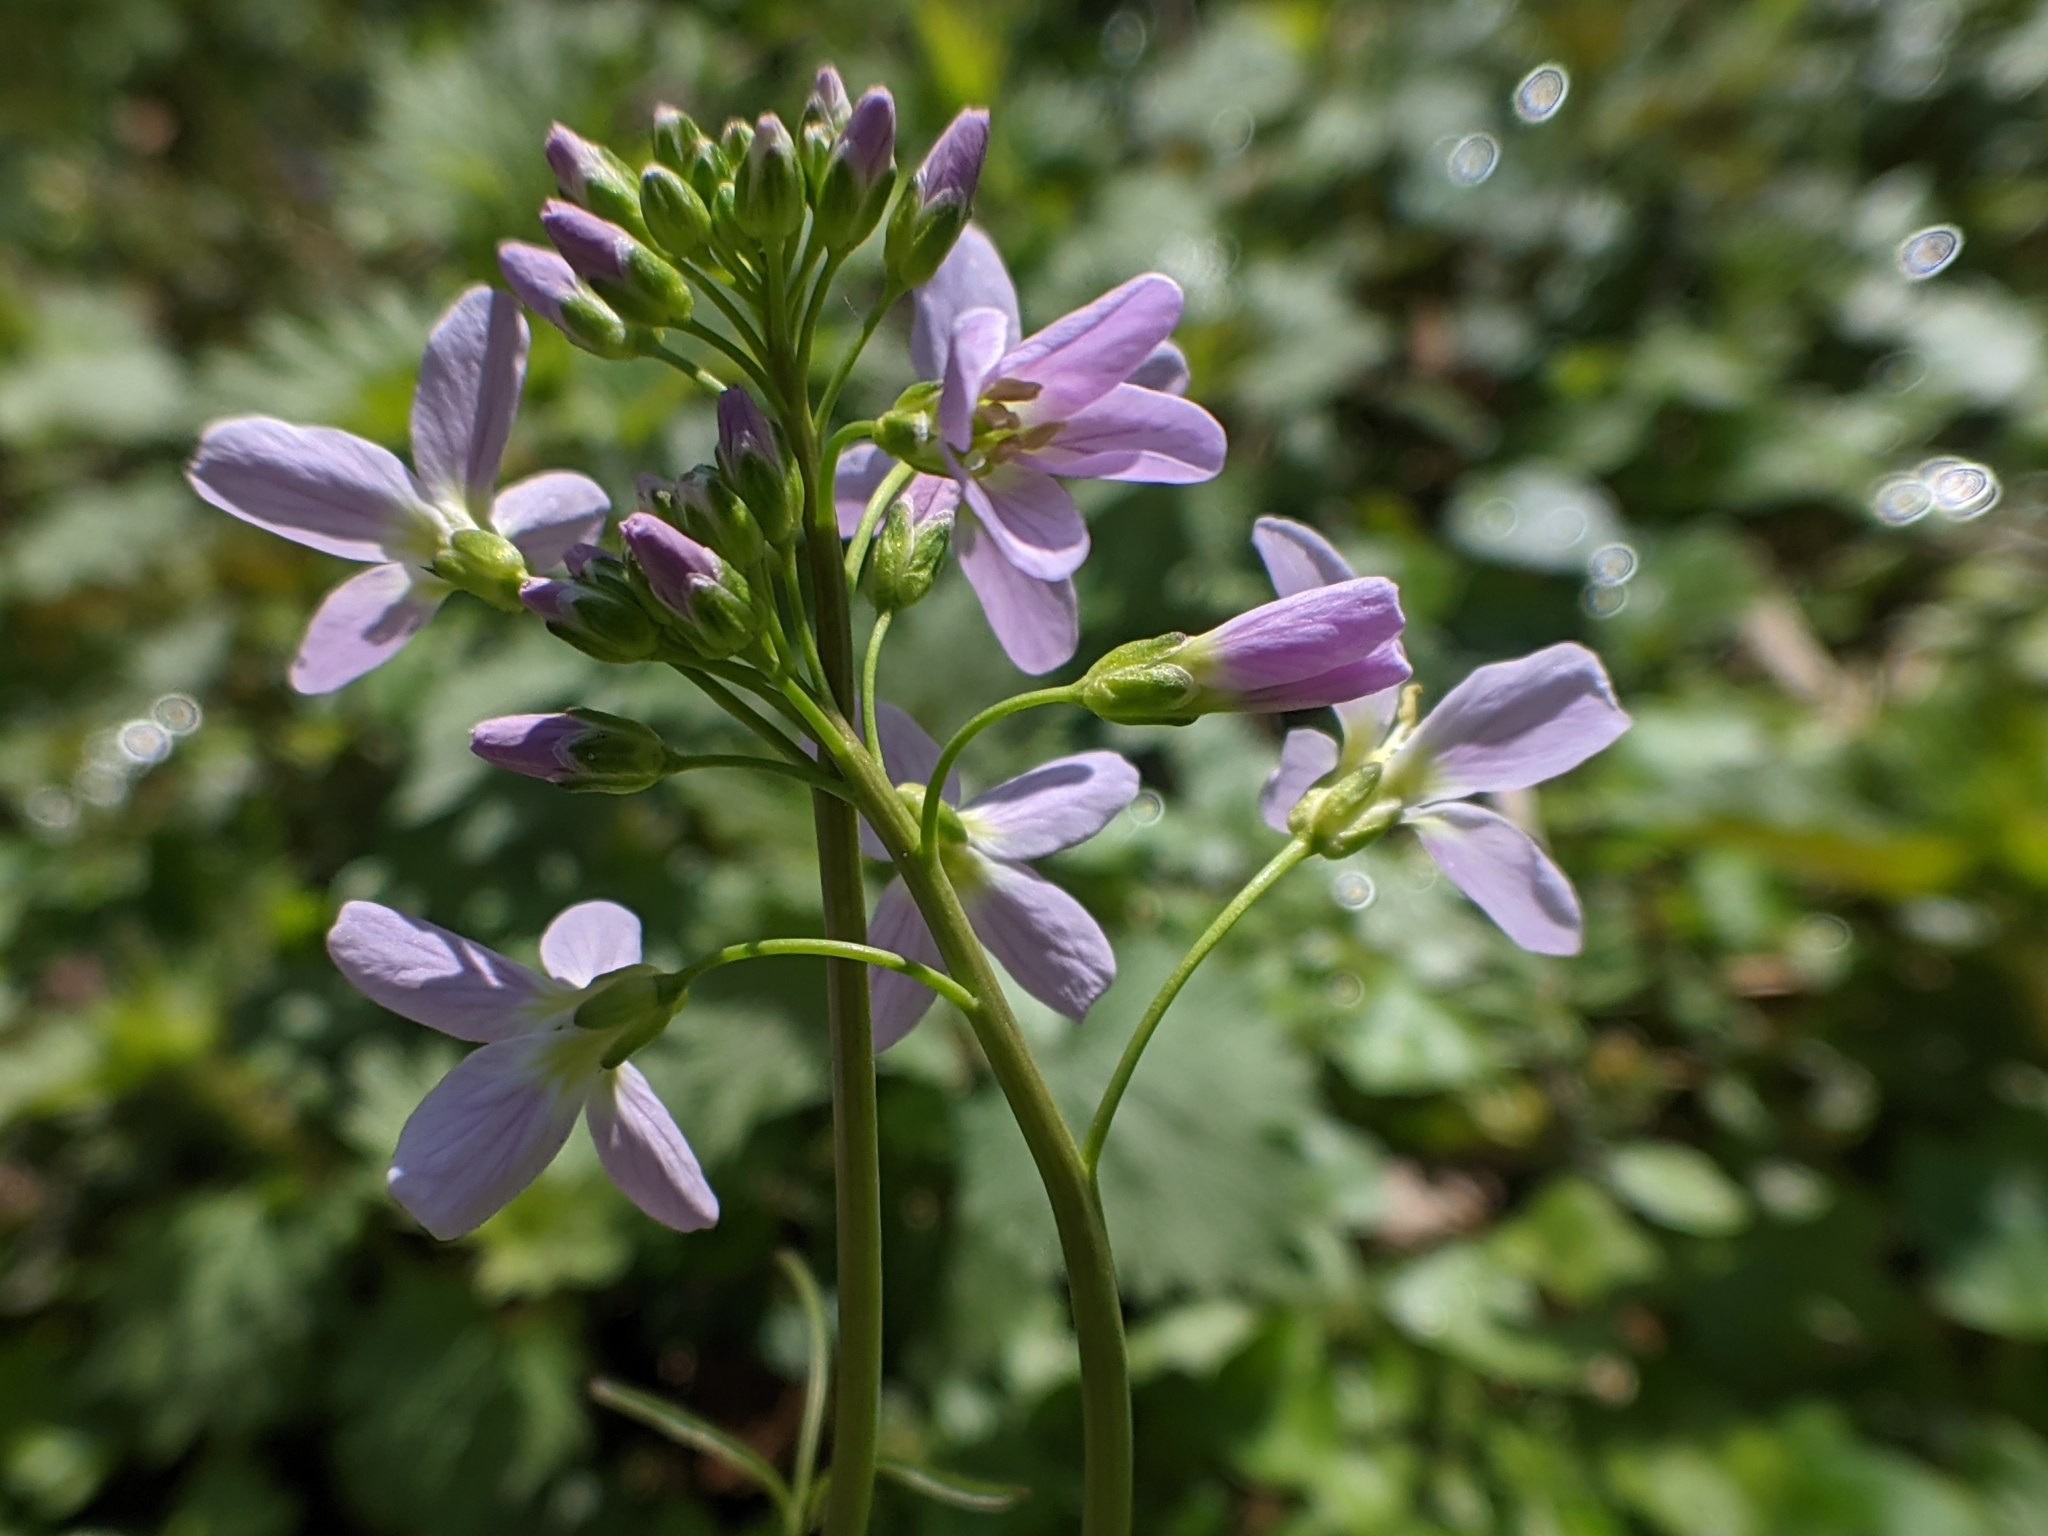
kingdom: Plantae
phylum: Tracheophyta
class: Magnoliopsida
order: Brassicales
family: Brassicaceae
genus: Cardamine
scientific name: Cardamine pratensis
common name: Cuckoo flower
